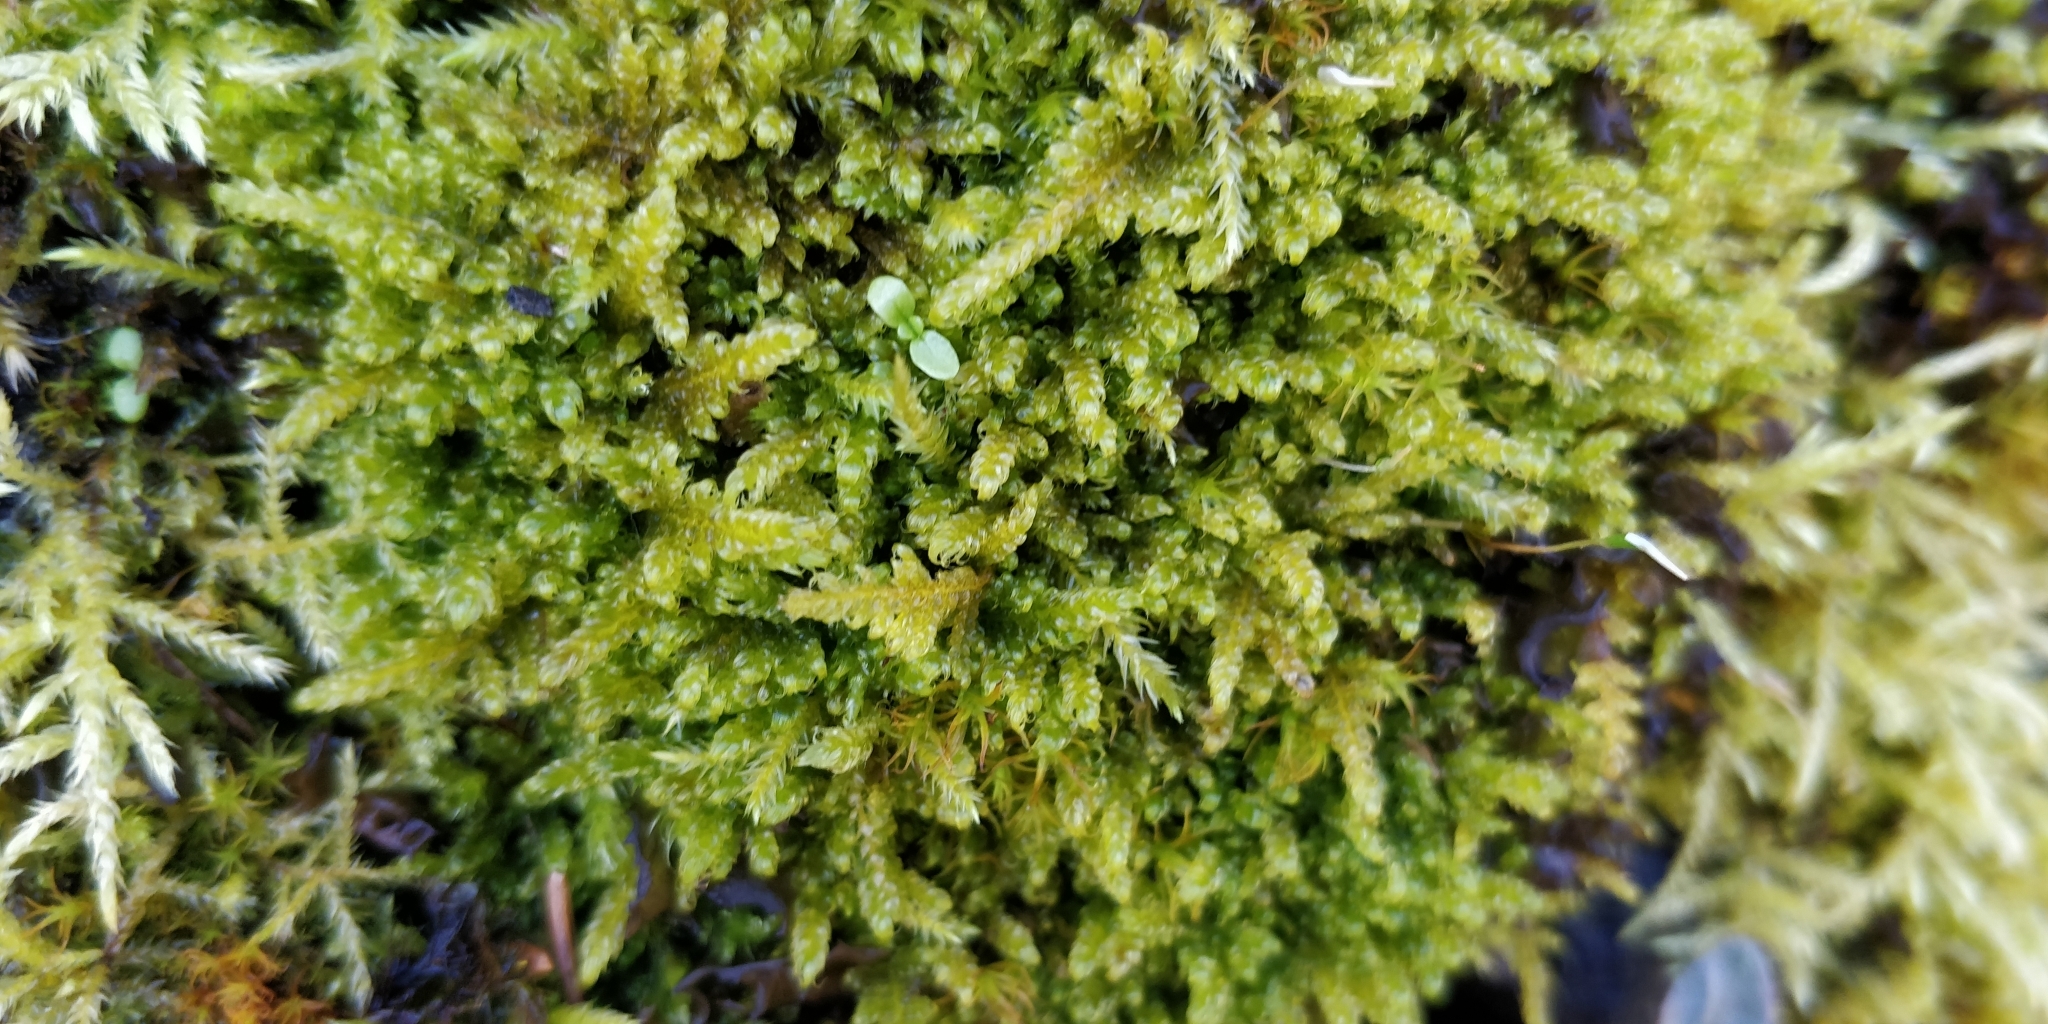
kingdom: Plantae
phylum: Bryophyta
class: Bryopsida
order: Hypnales
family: Stereodontaceae
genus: Stereodon
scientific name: Stereodon subimponens
